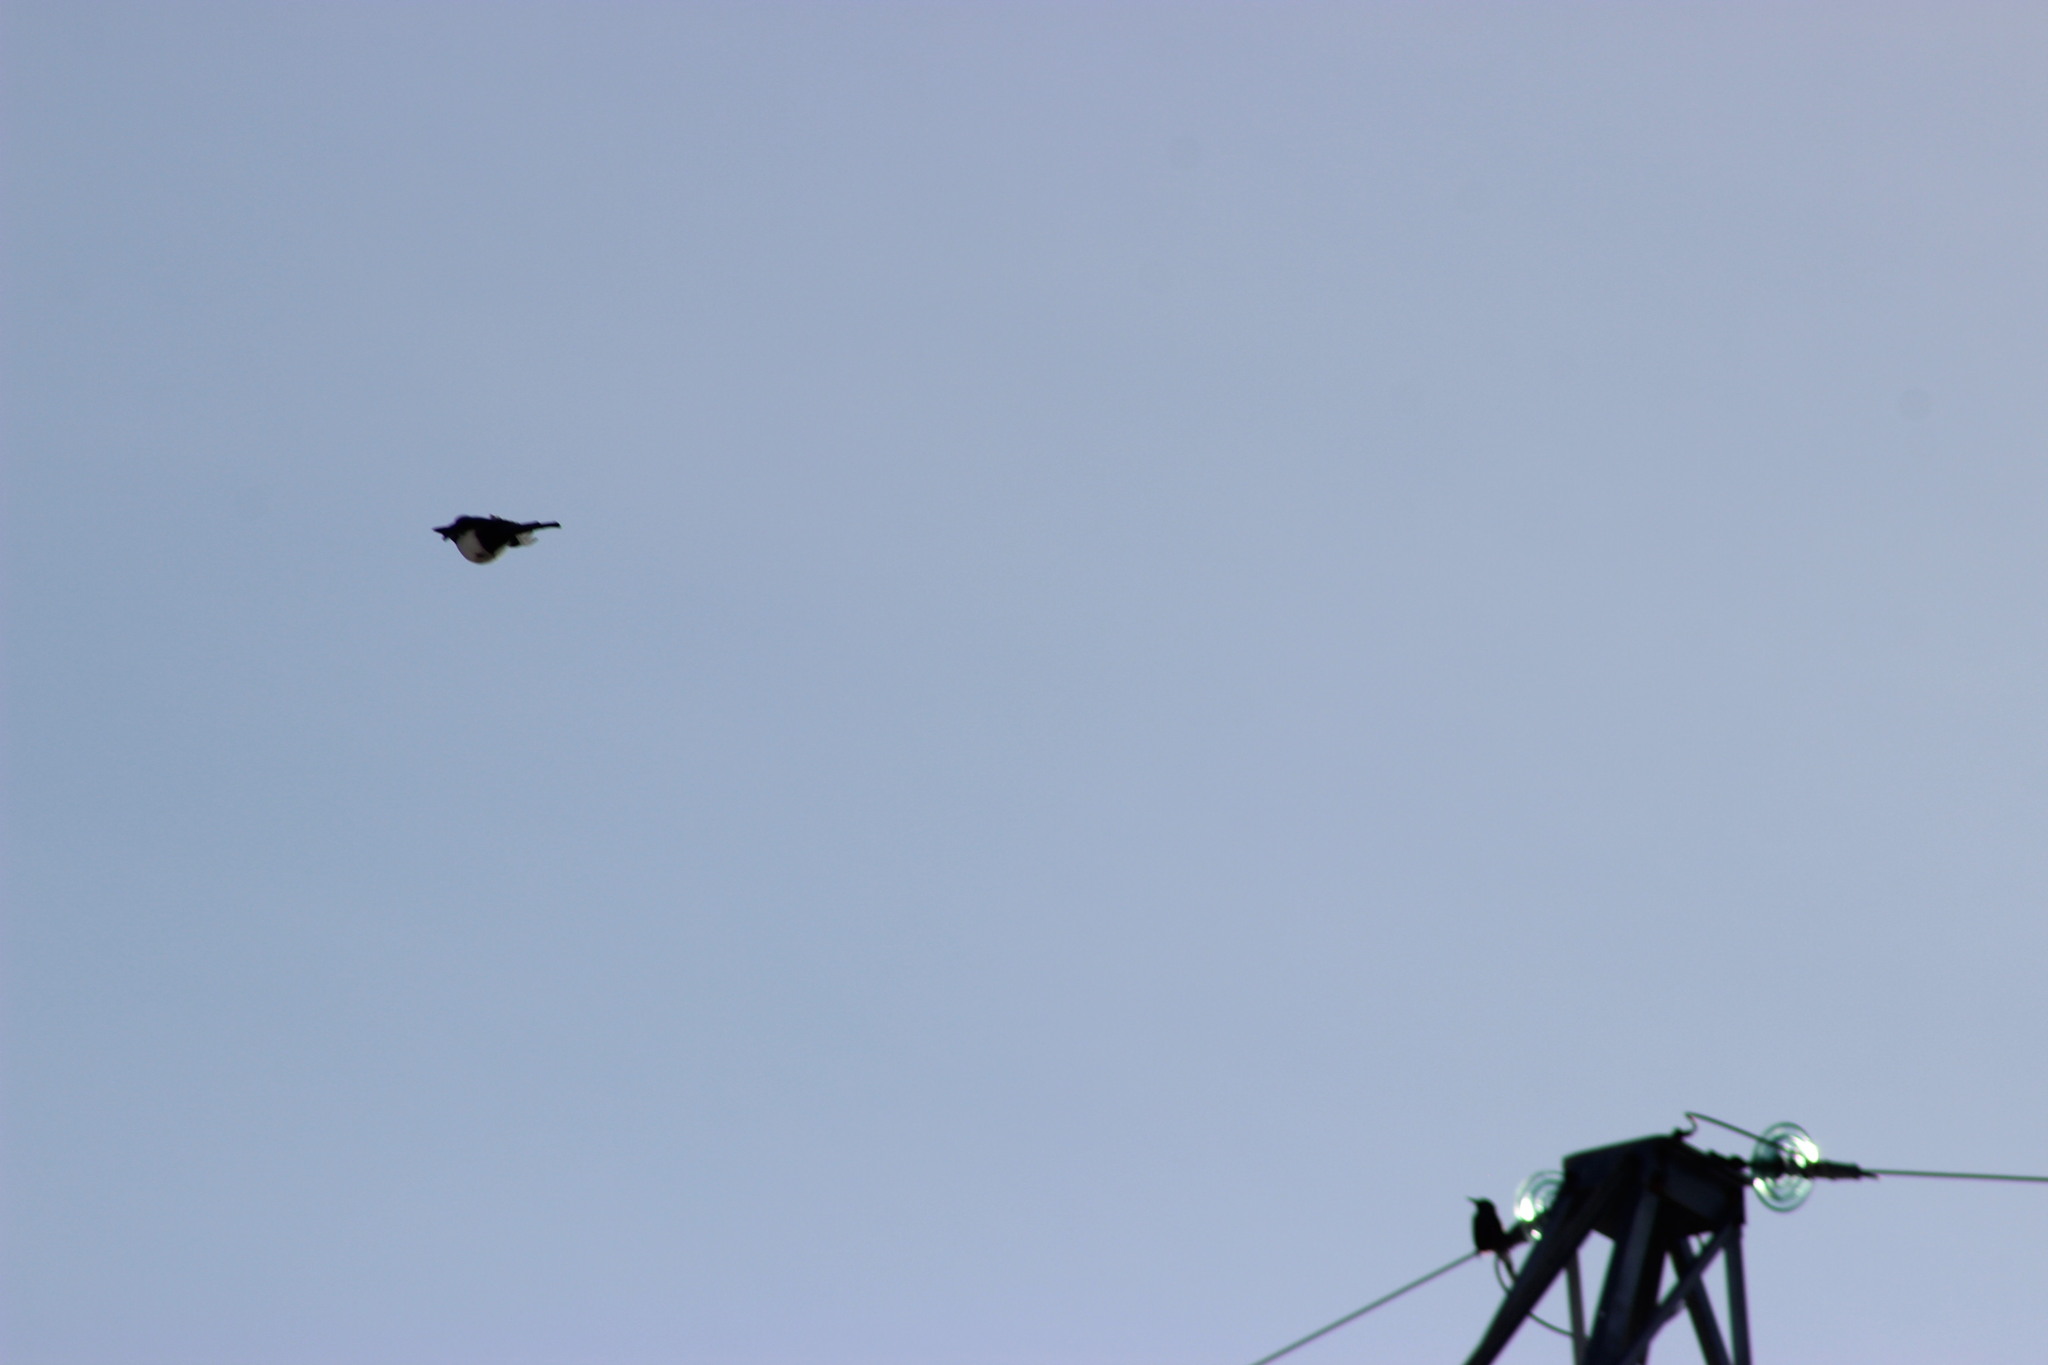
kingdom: Animalia
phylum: Chordata
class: Aves
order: Passeriformes
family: Corvidae
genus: Pica
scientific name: Pica pica
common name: Eurasian magpie
